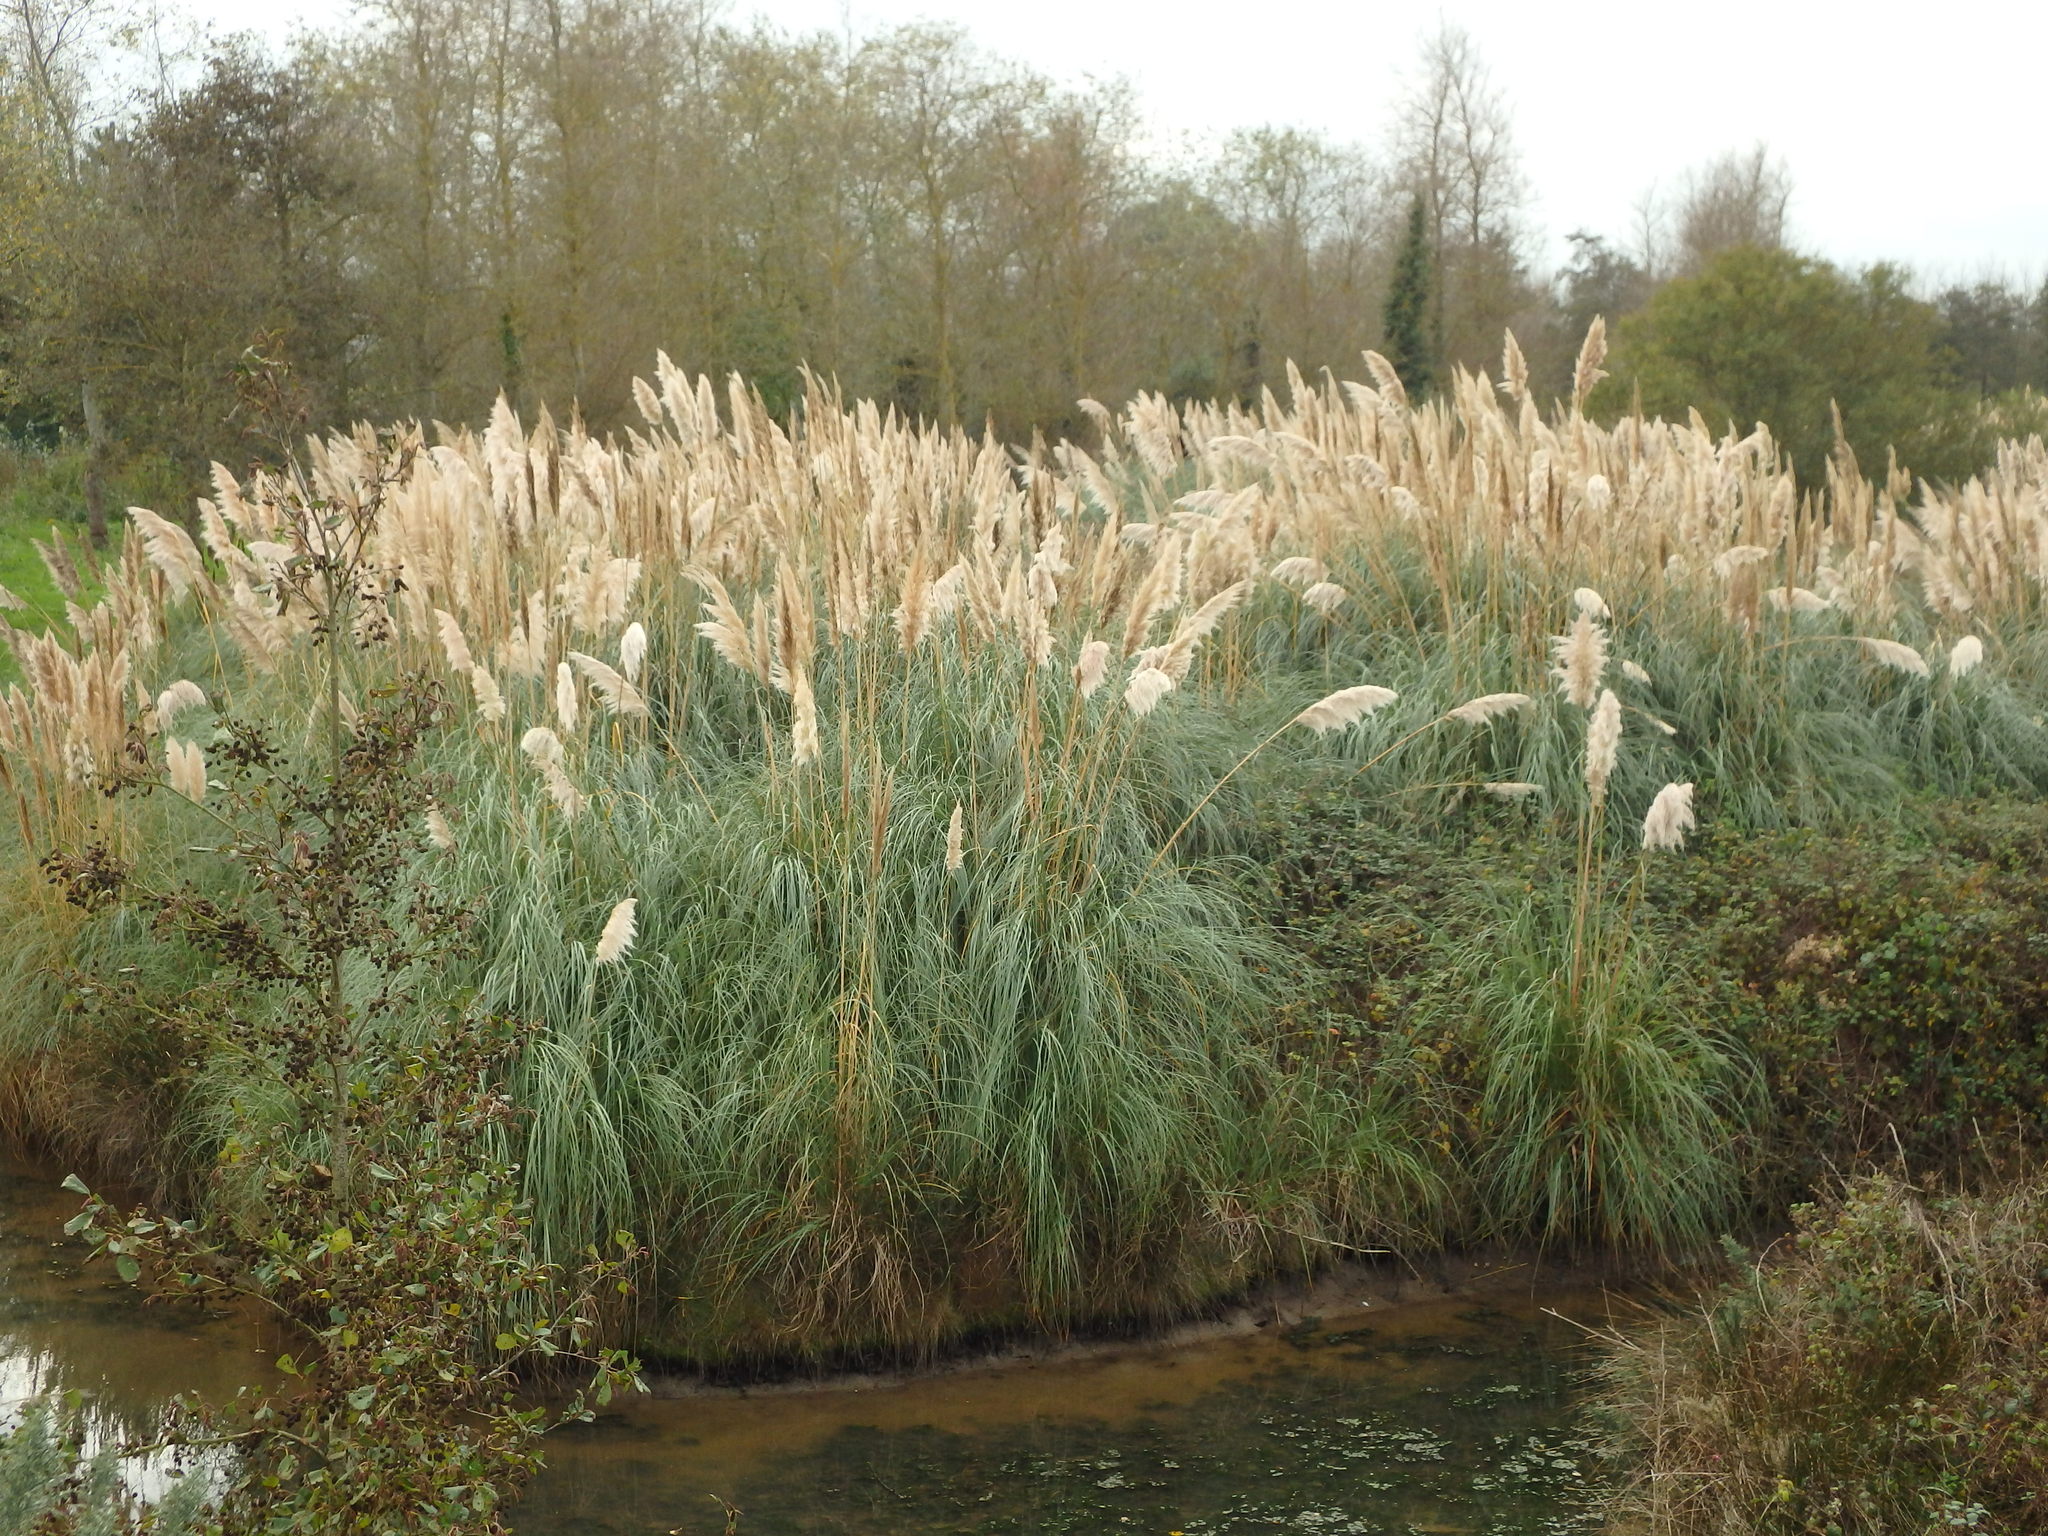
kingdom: Plantae
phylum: Tracheophyta
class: Liliopsida
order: Poales
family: Poaceae
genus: Cortaderia
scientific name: Cortaderia selloana
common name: Uruguayan pampas grass
